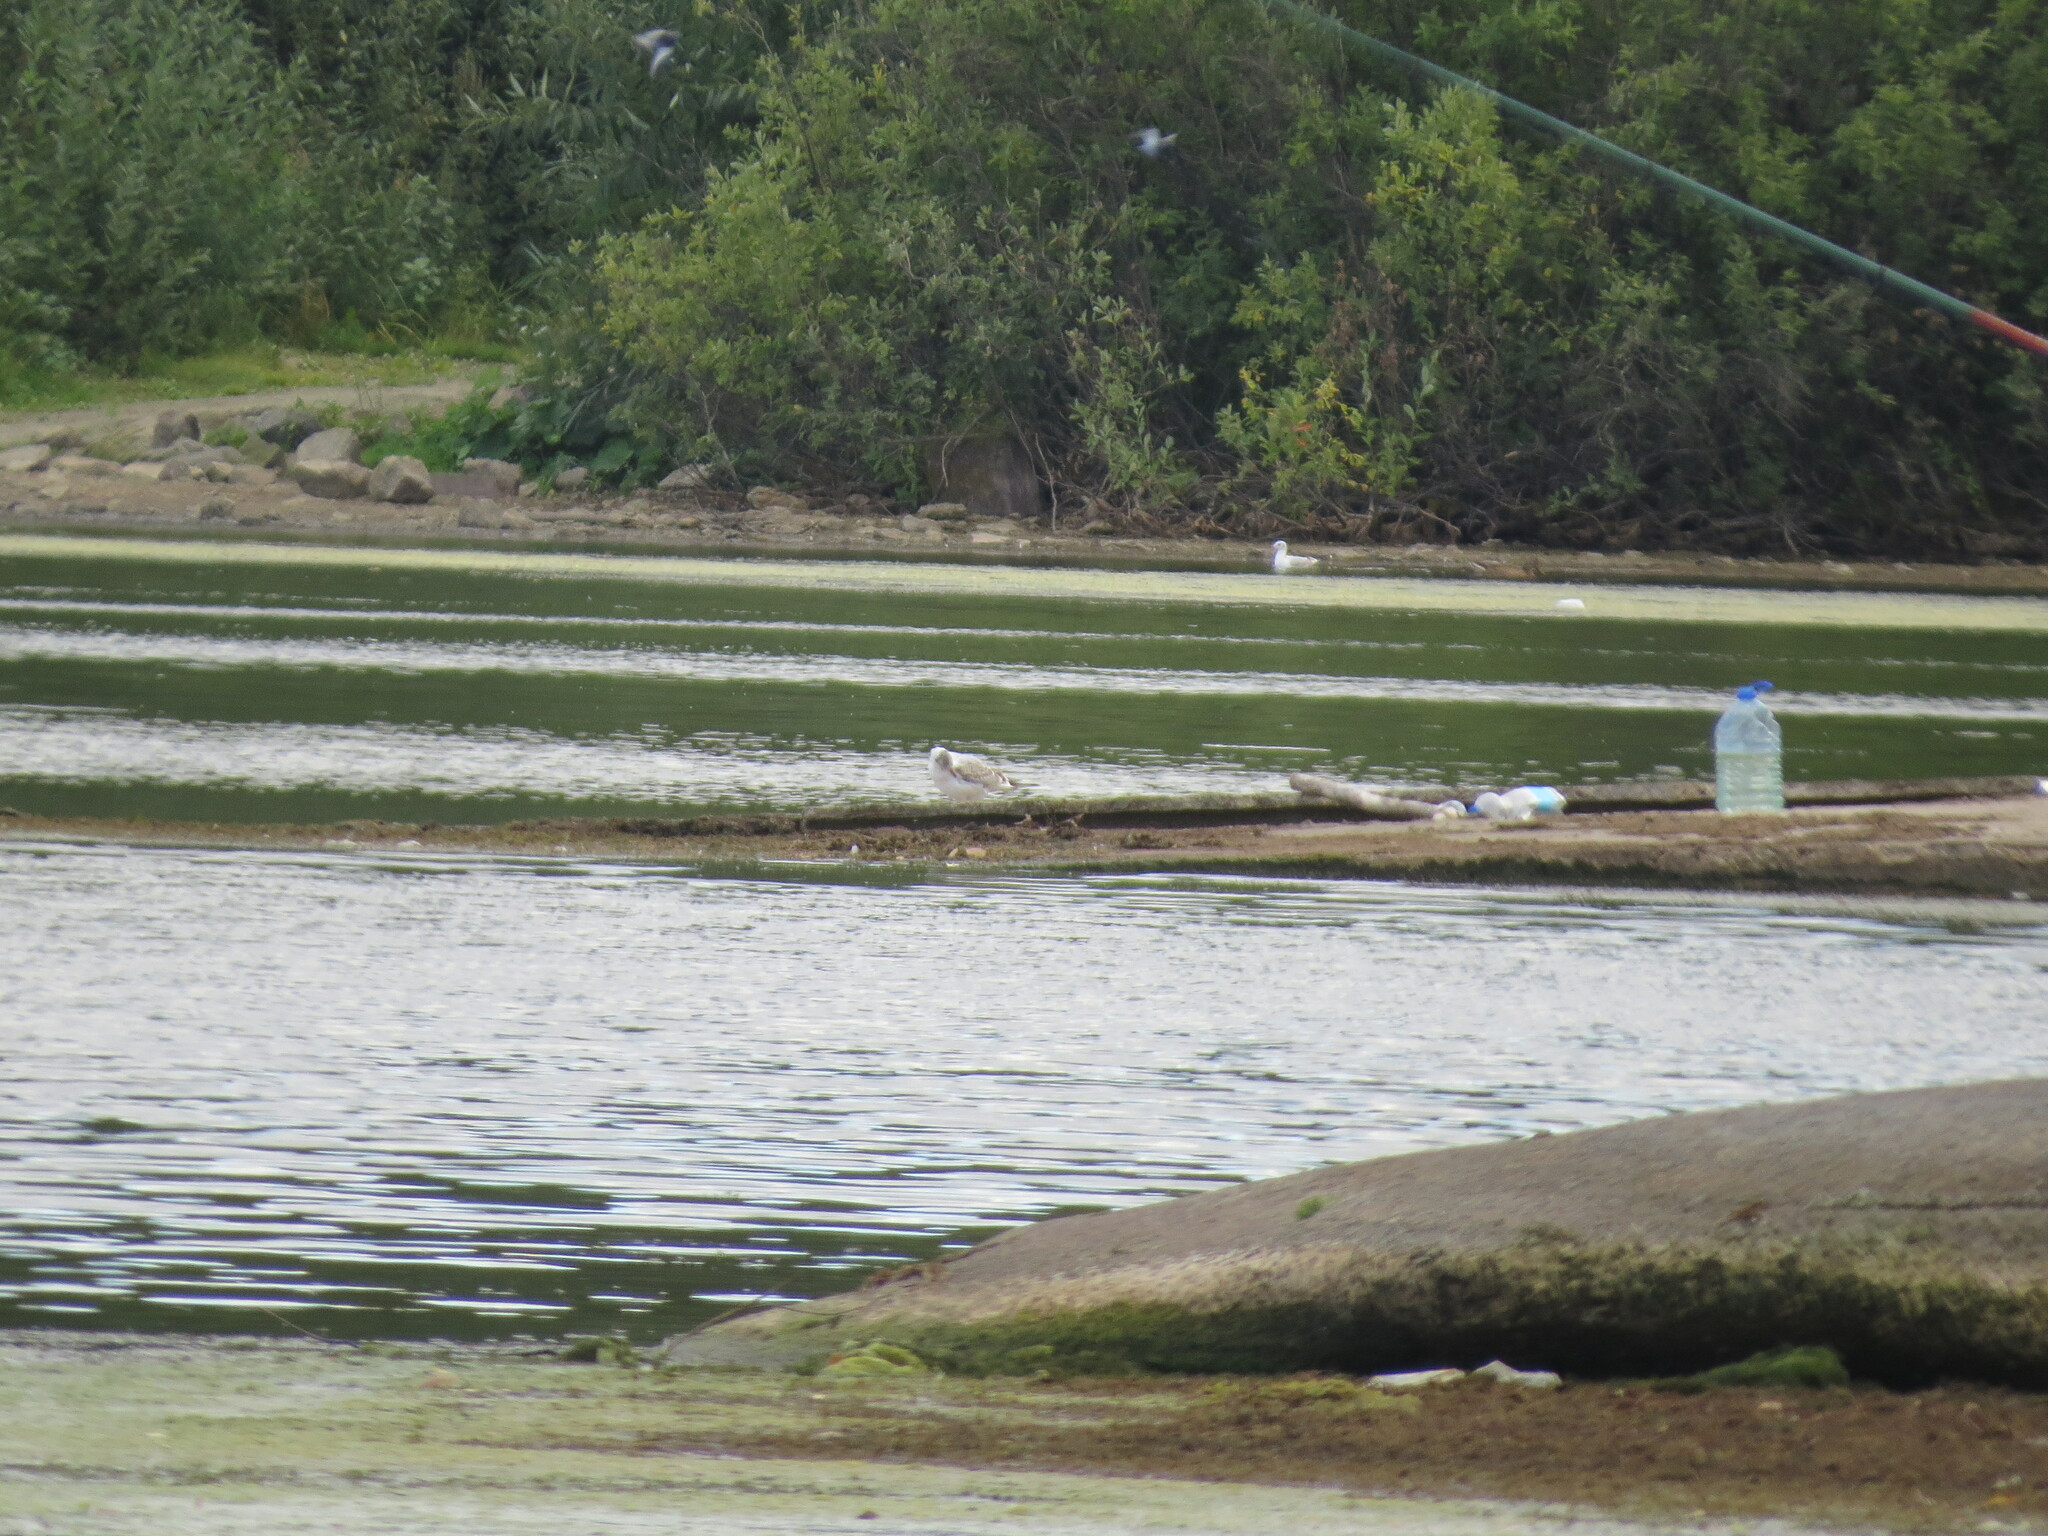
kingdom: Animalia
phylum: Chordata
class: Aves
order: Charadriiformes
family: Laridae
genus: Chroicocephalus
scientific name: Chroicocephalus ridibundus
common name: Black-headed gull
